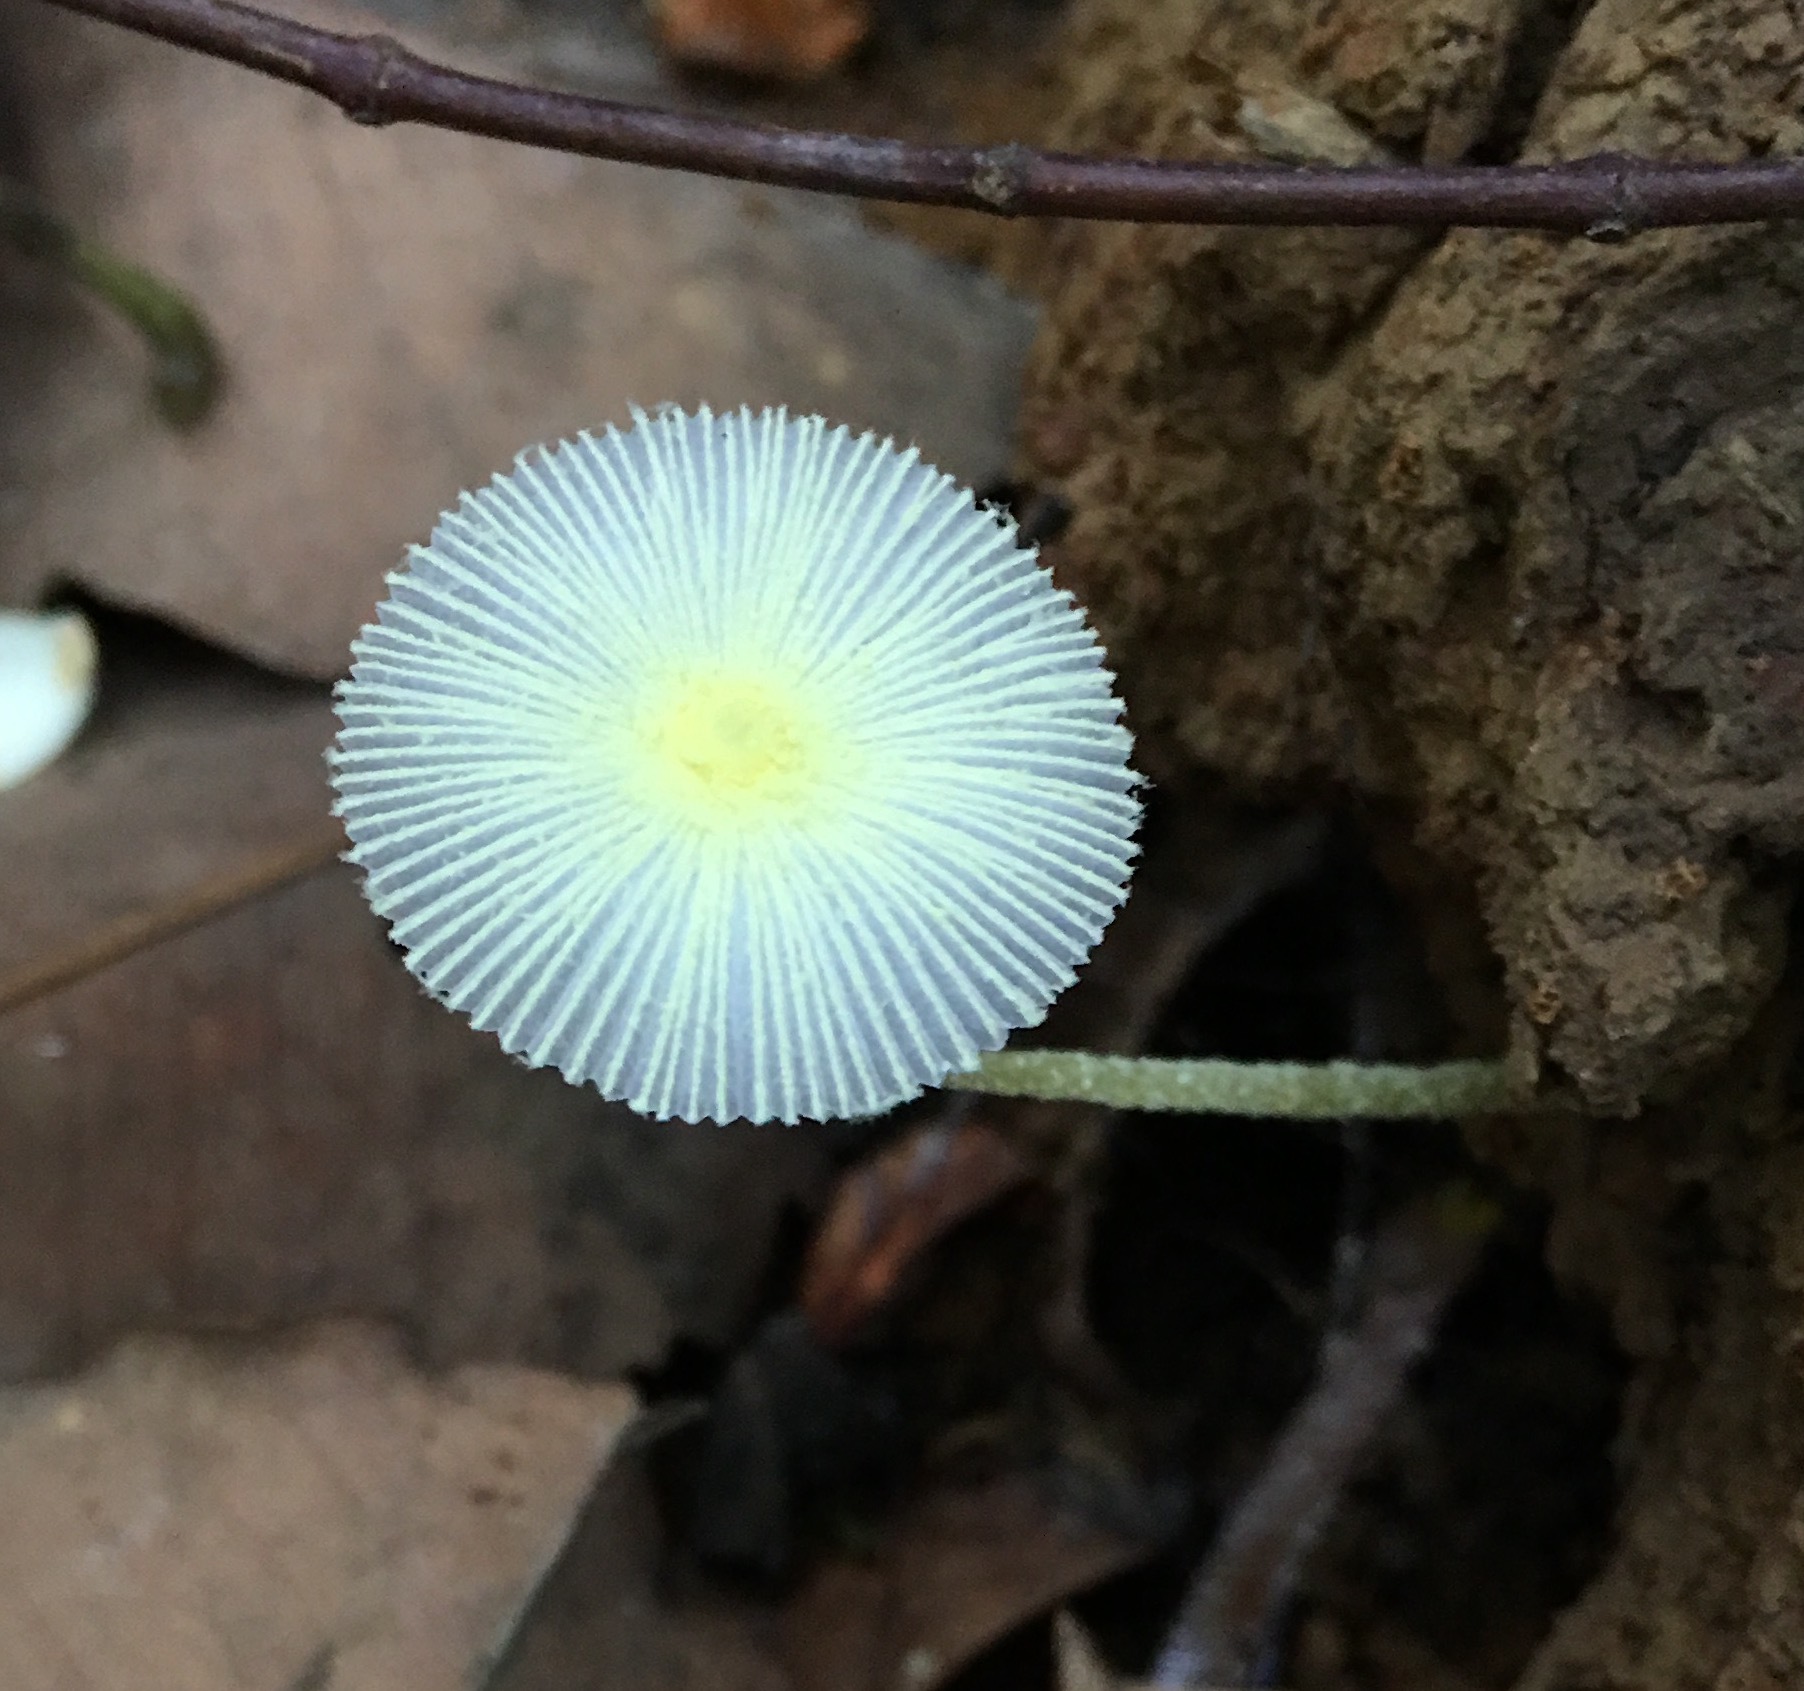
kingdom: Fungi
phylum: Basidiomycota
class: Agaricomycetes
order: Agaricales
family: Agaricaceae
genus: Leucocoprinus
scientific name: Leucocoprinus fragilissimus
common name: Fragile dapperling
